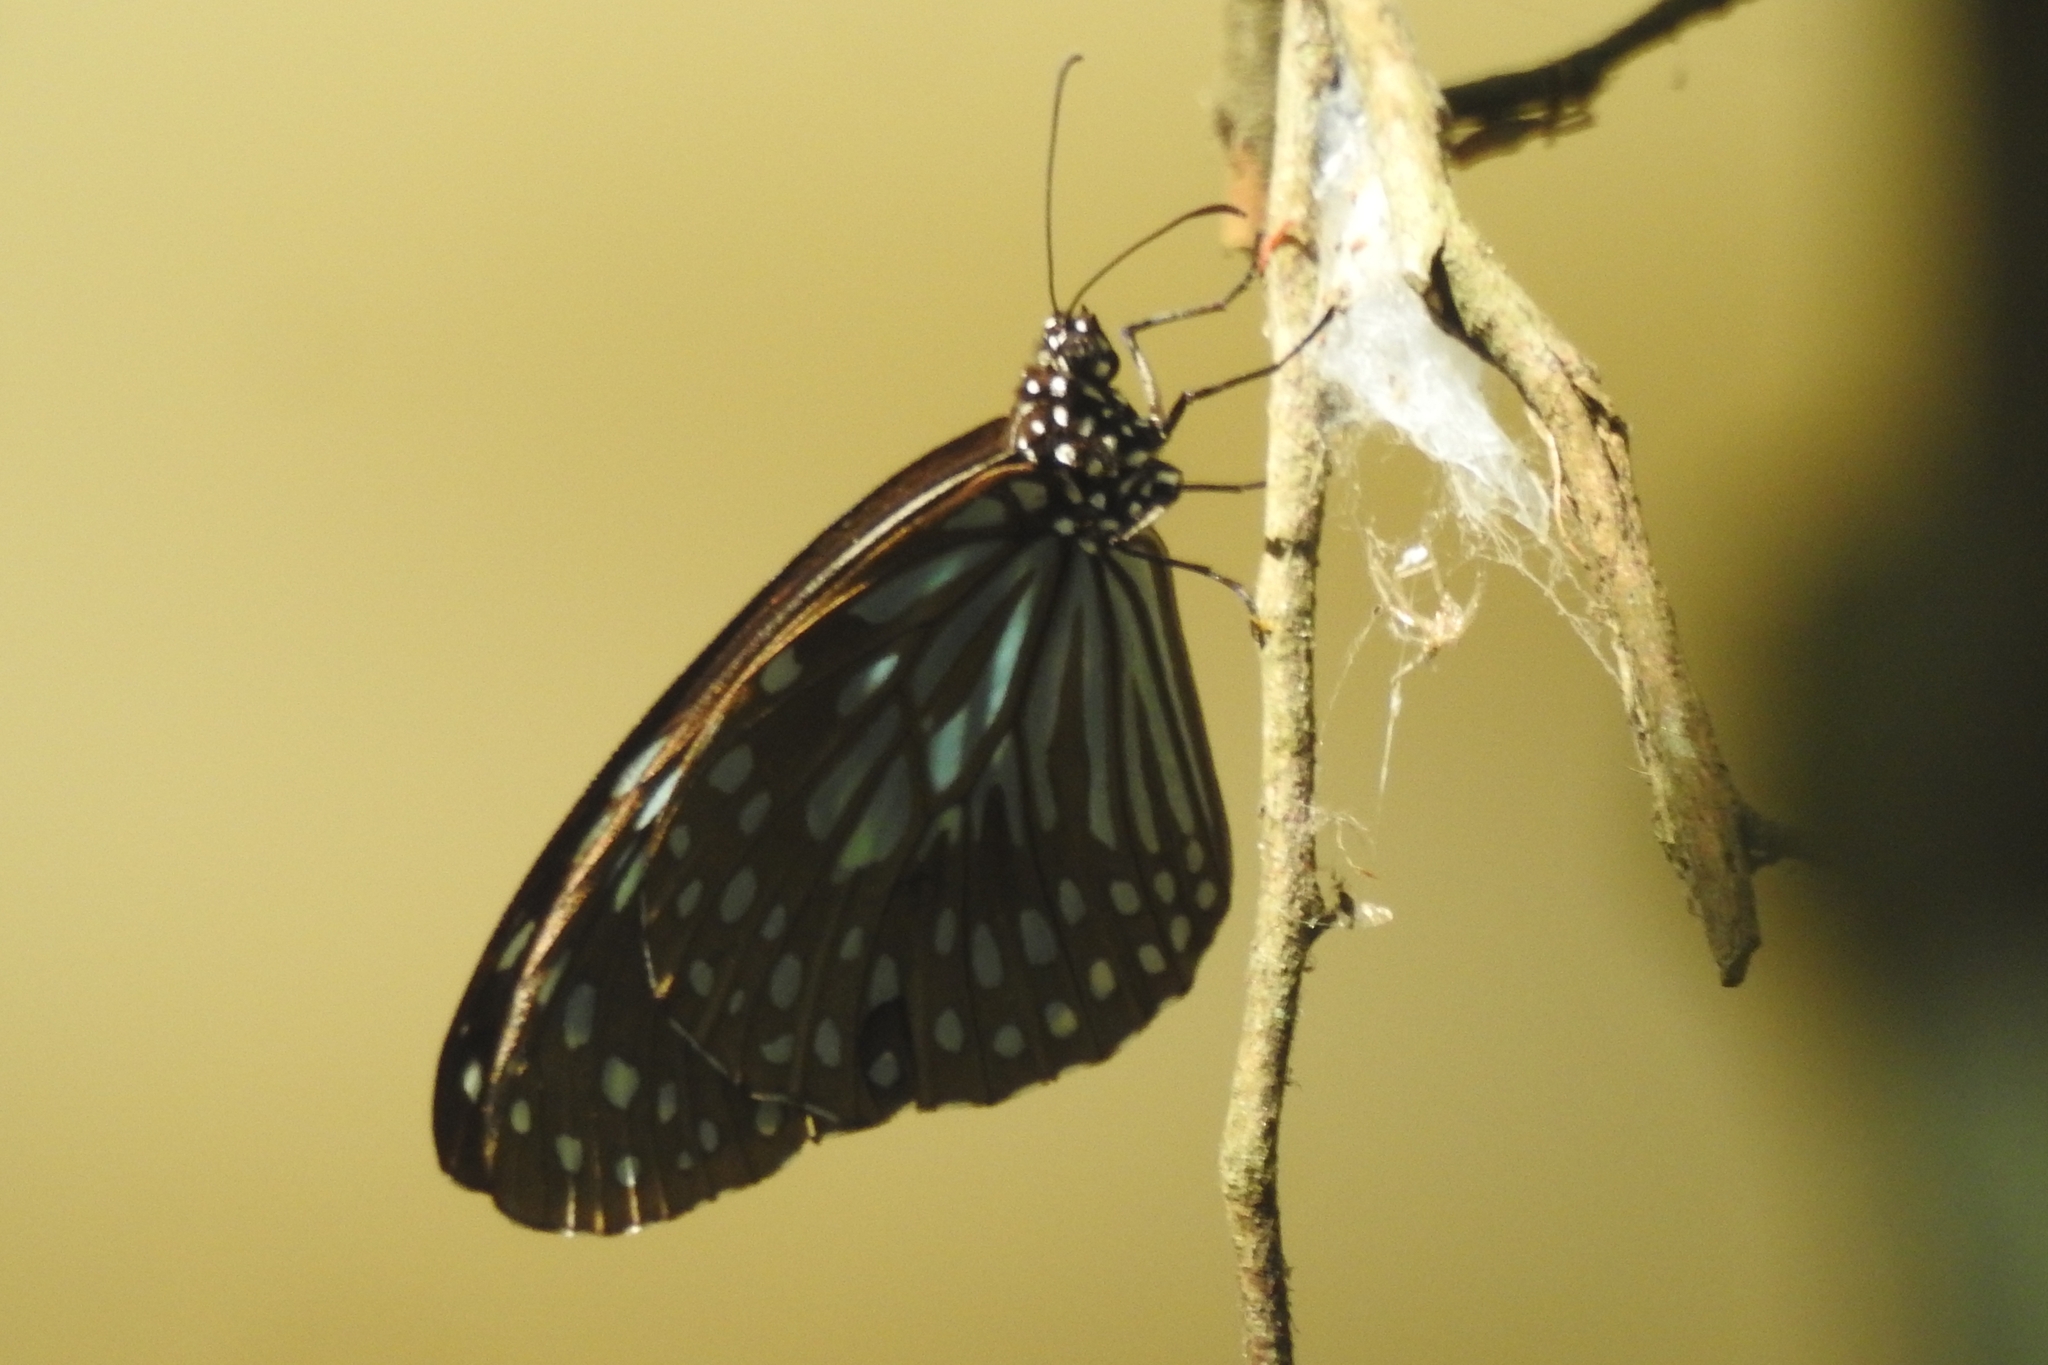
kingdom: Animalia
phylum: Arthropoda
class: Insecta
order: Lepidoptera
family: Nymphalidae
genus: Tirumala
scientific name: Tirumala septentrionis
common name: Dark blue tiger butterfly
